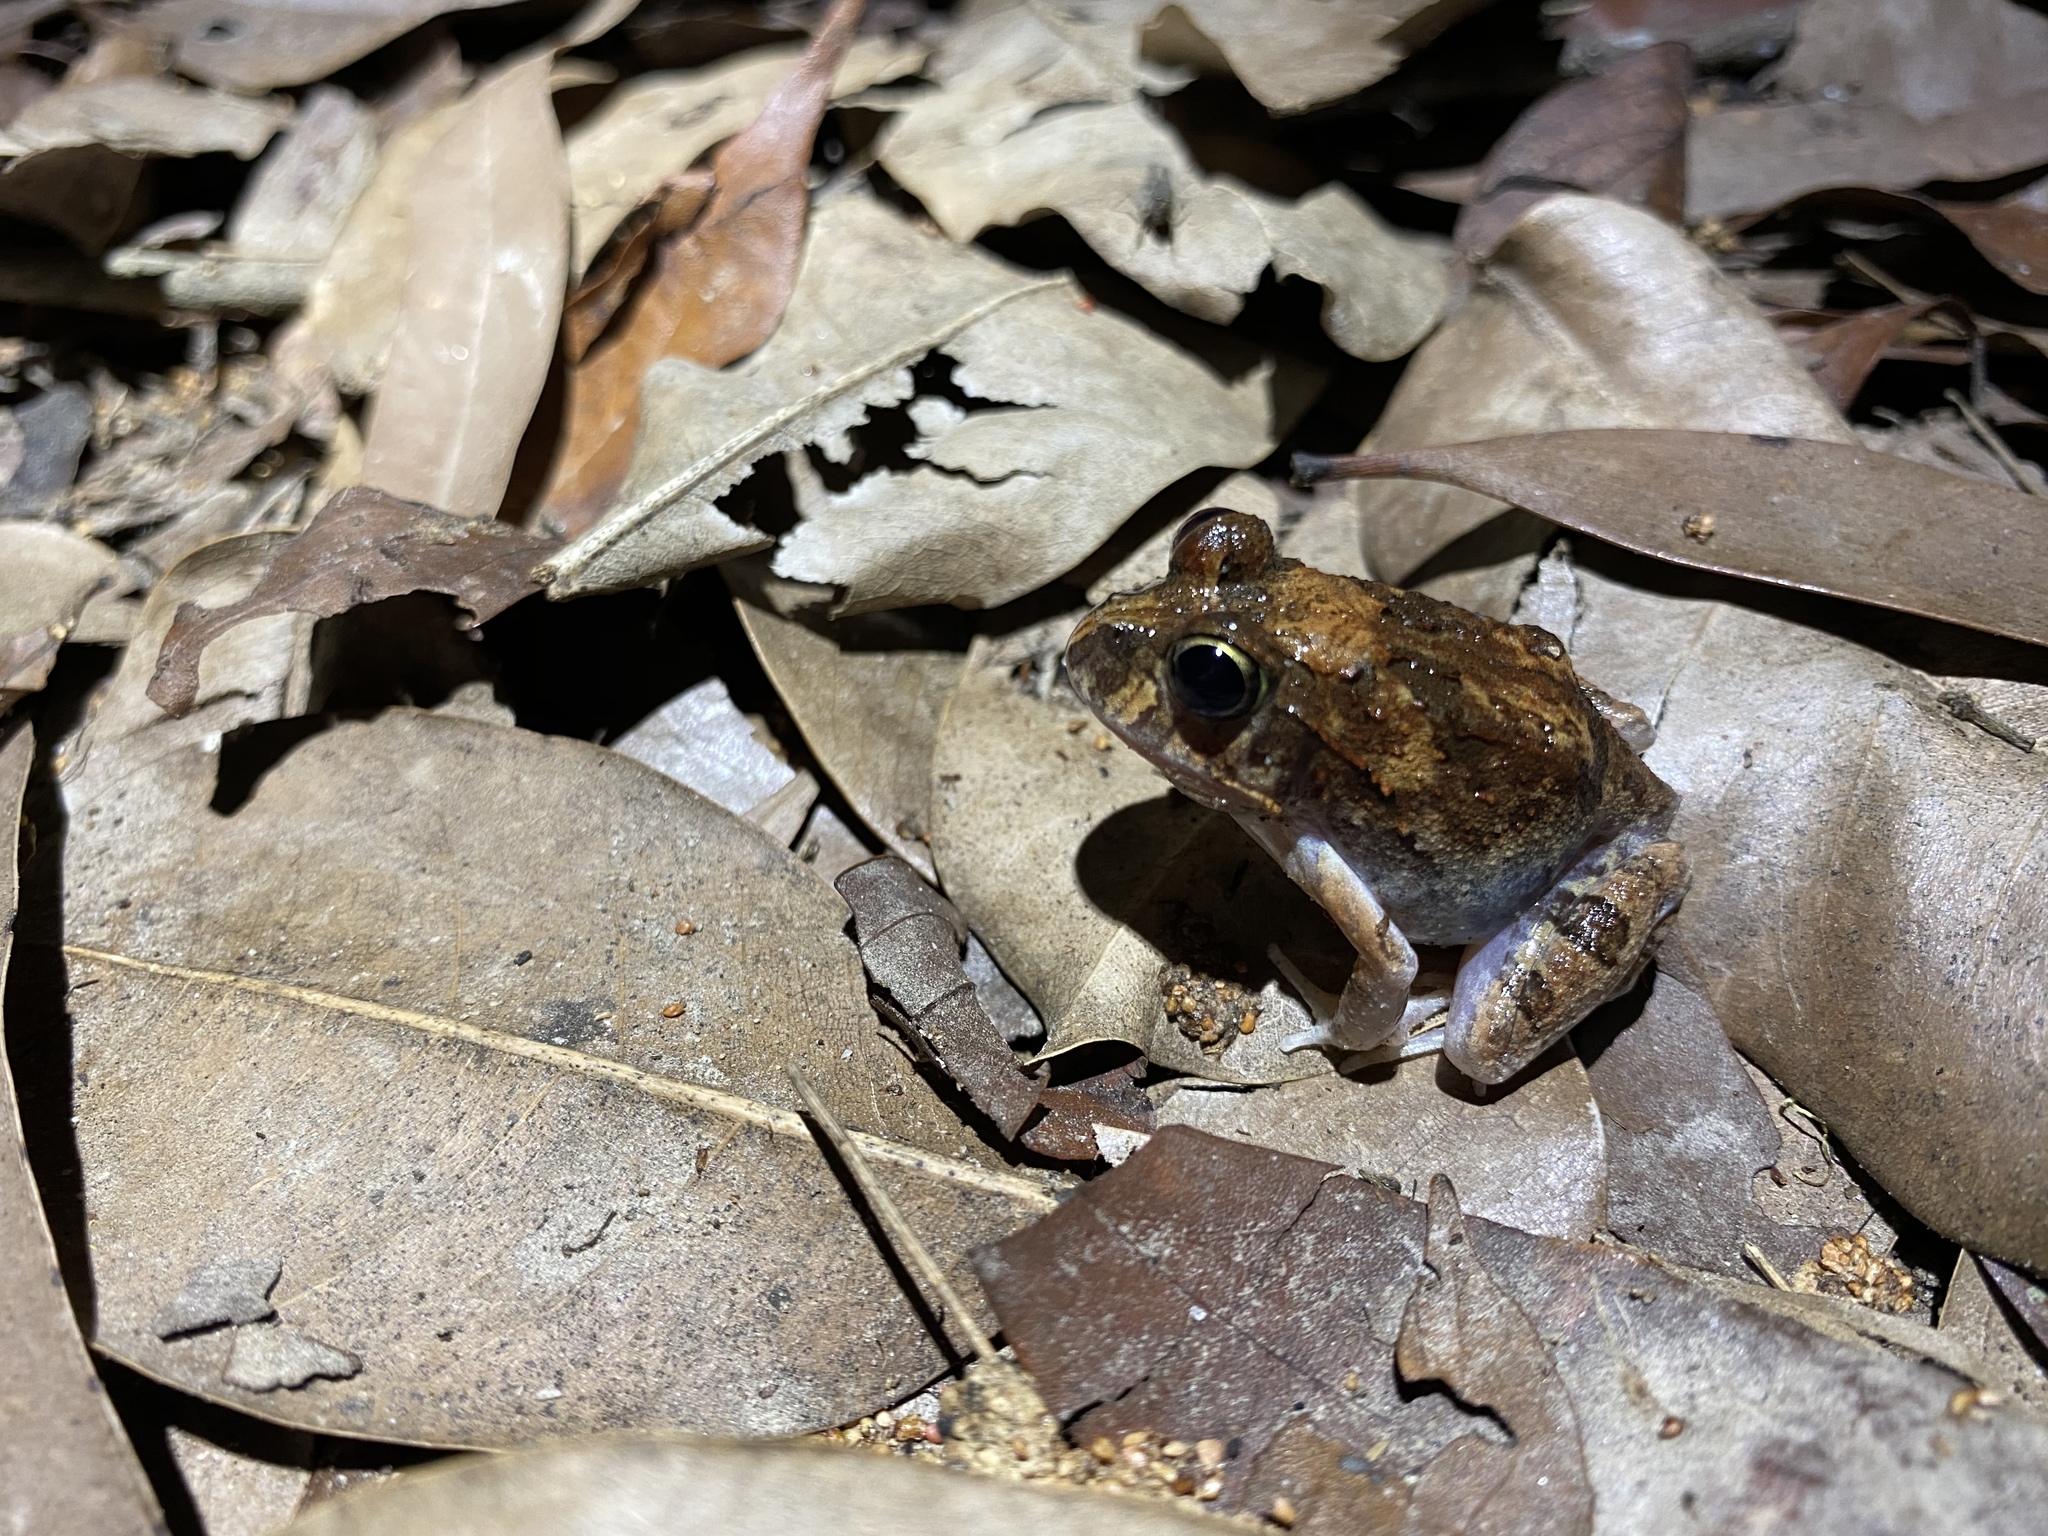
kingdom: Animalia
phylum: Chordata
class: Amphibia
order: Anura
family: Limnodynastidae
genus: Platyplectrum
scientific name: Platyplectrum ornatum
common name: Ornate burrowing frog
